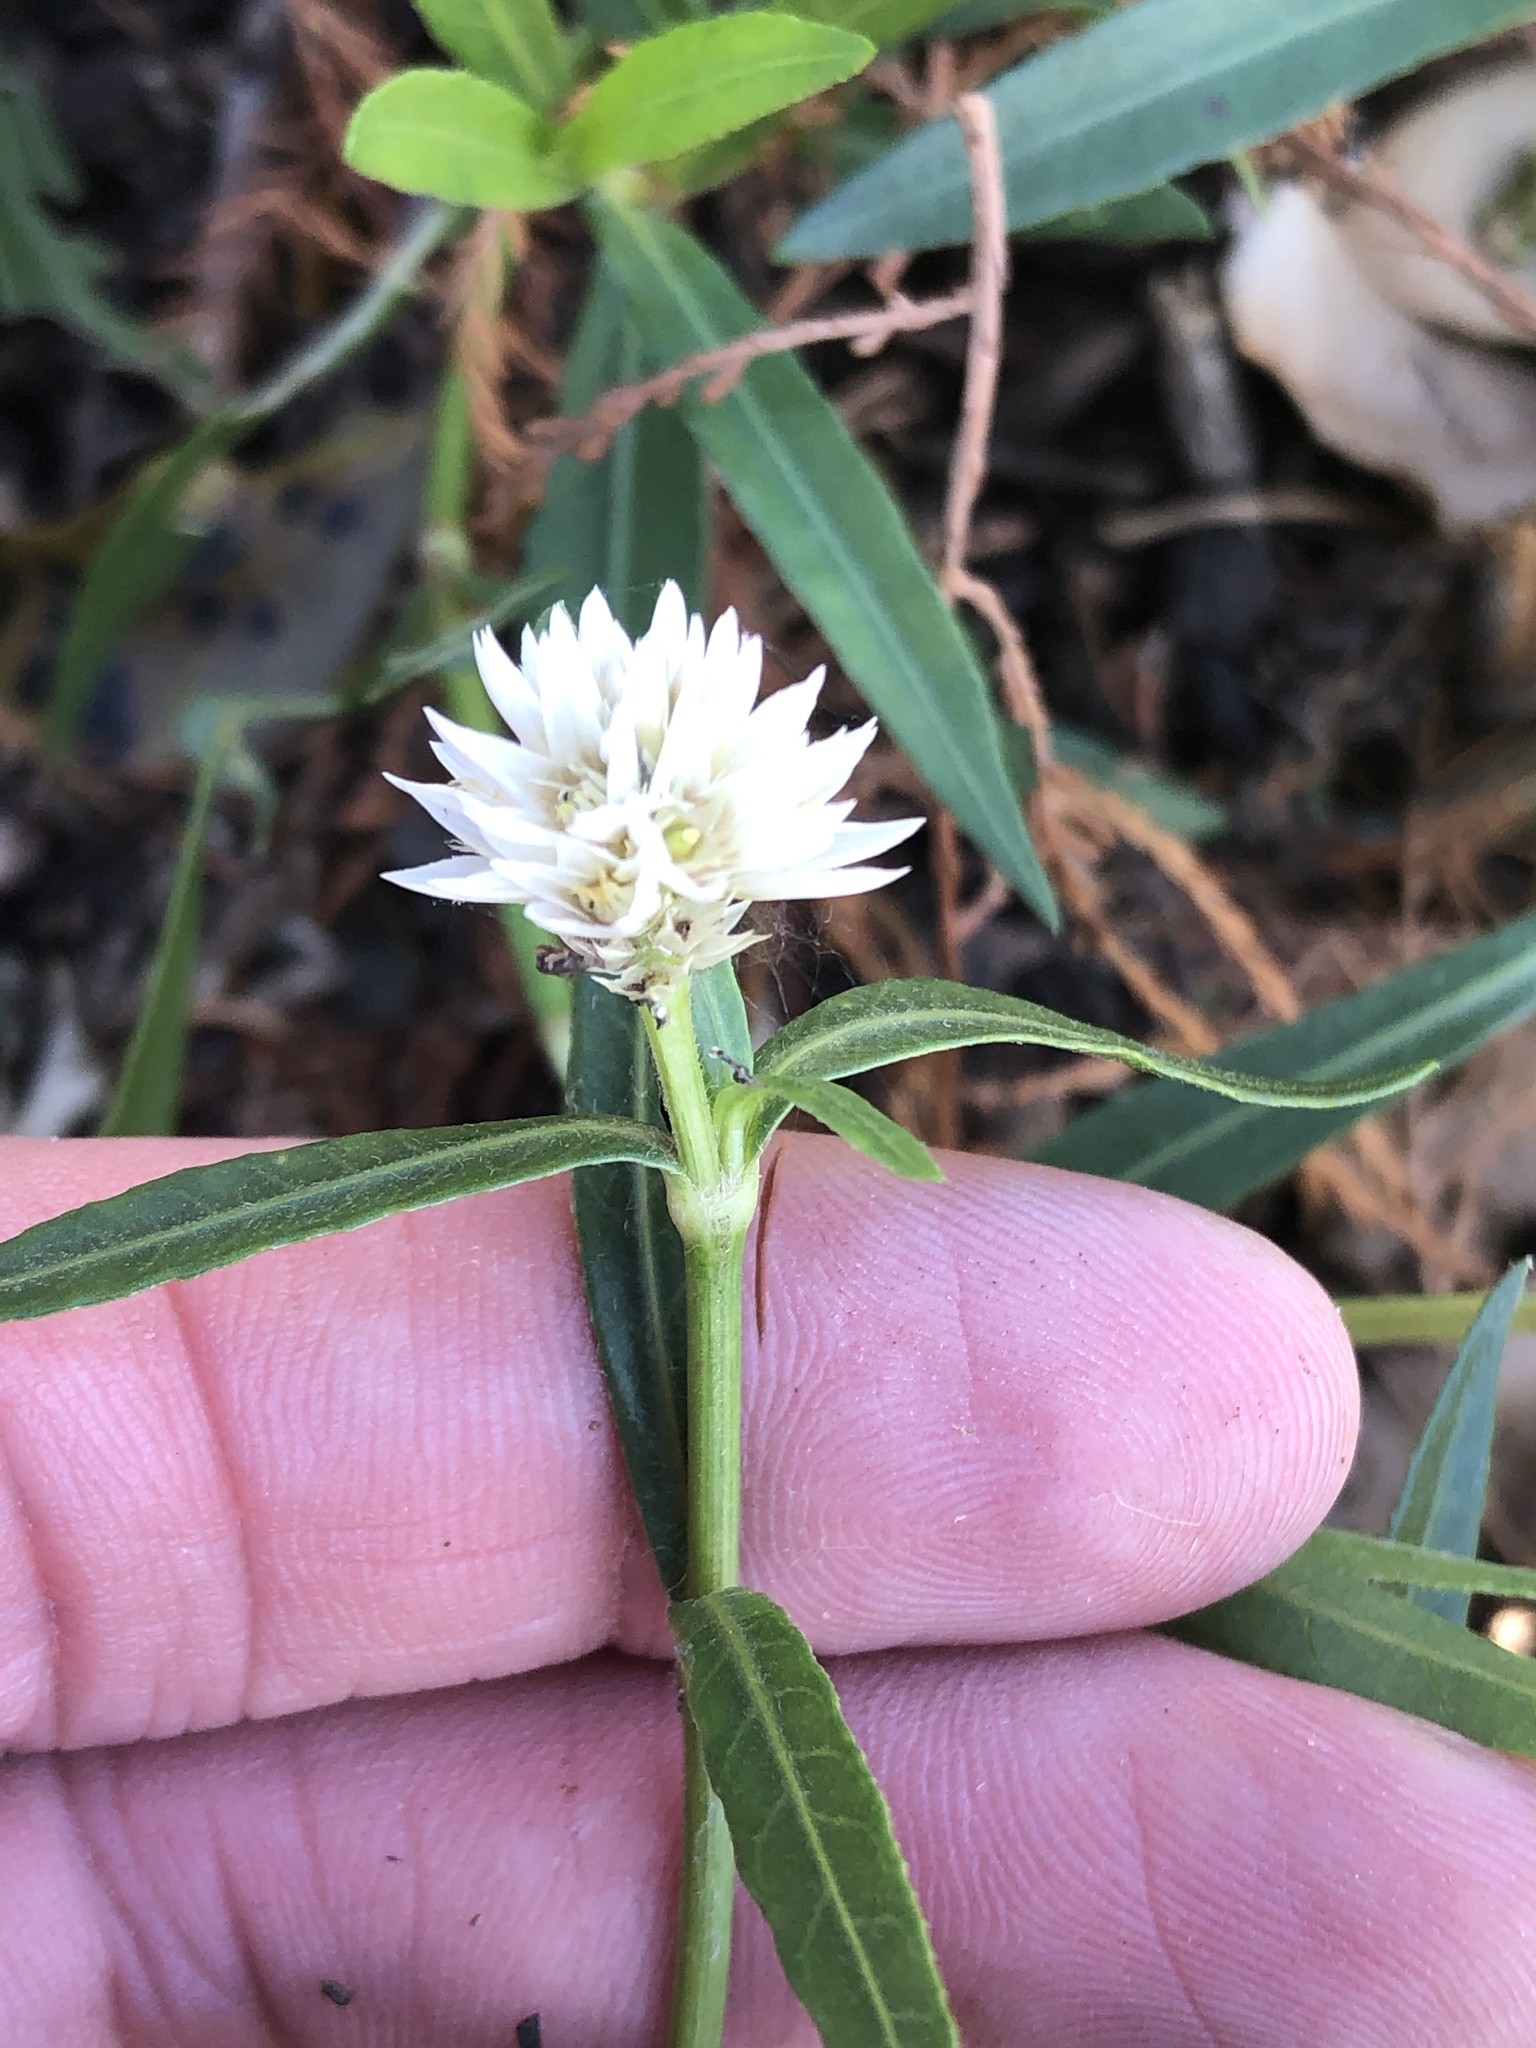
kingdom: Plantae
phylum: Tracheophyta
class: Magnoliopsida
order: Caryophyllales
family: Amaranthaceae
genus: Alternanthera
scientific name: Alternanthera philoxeroides
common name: Alligatorweed
